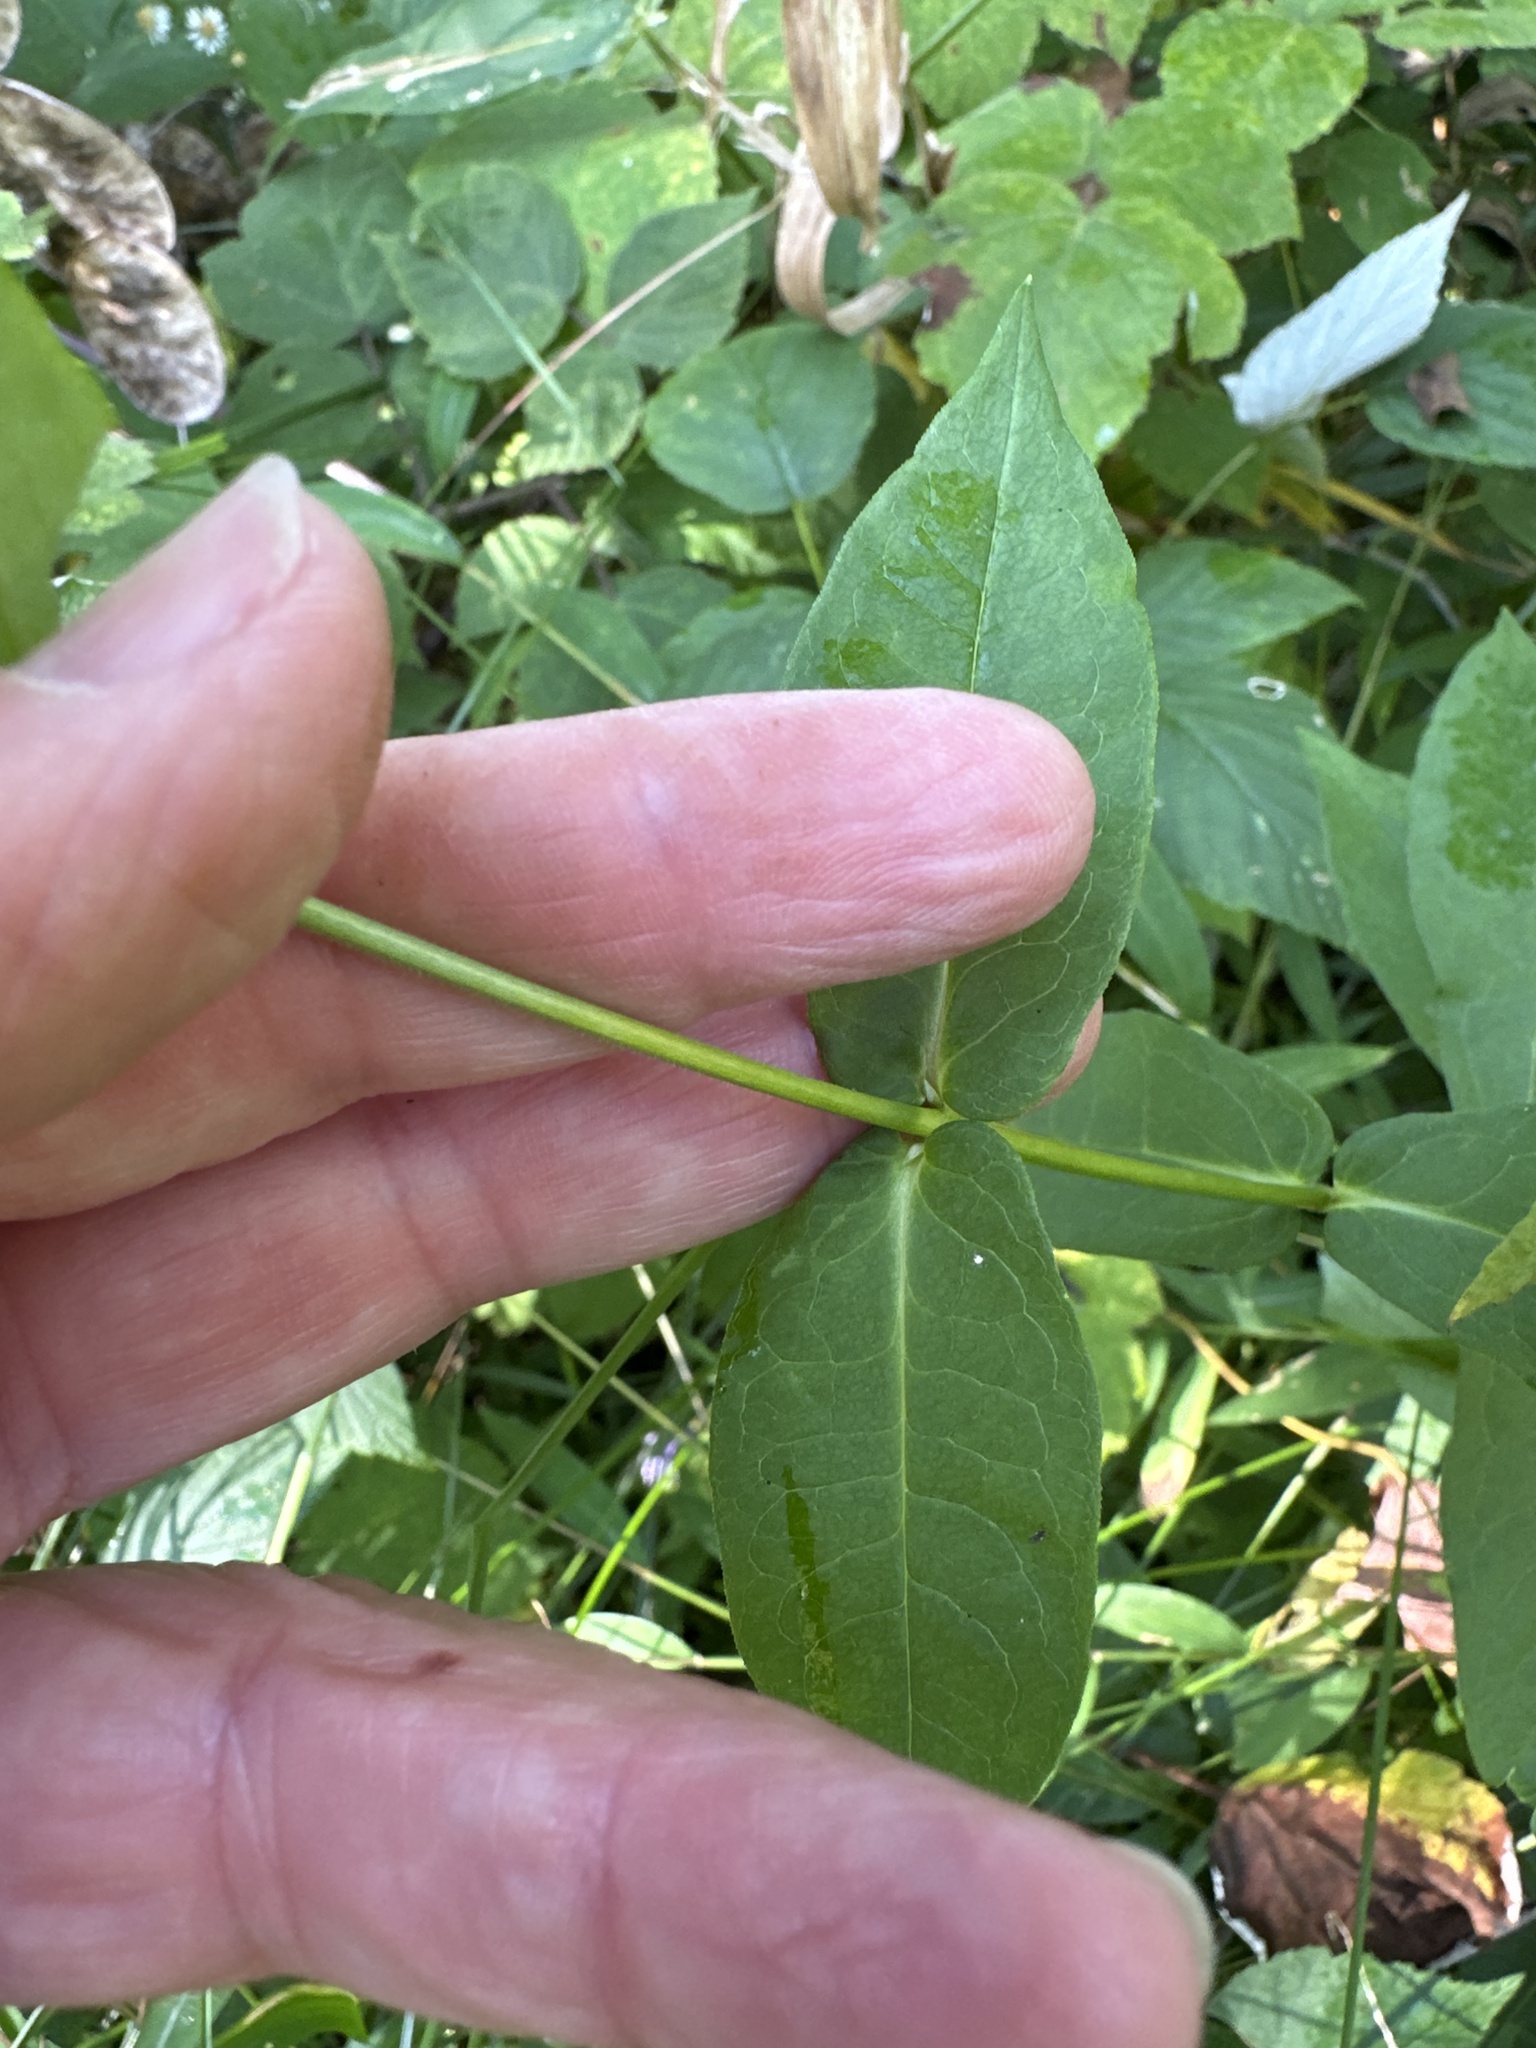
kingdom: Plantae
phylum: Tracheophyta
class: Magnoliopsida
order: Ericales
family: Polemoniaceae
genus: Phlox
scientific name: Phlox paniculata
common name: Fall phlox
